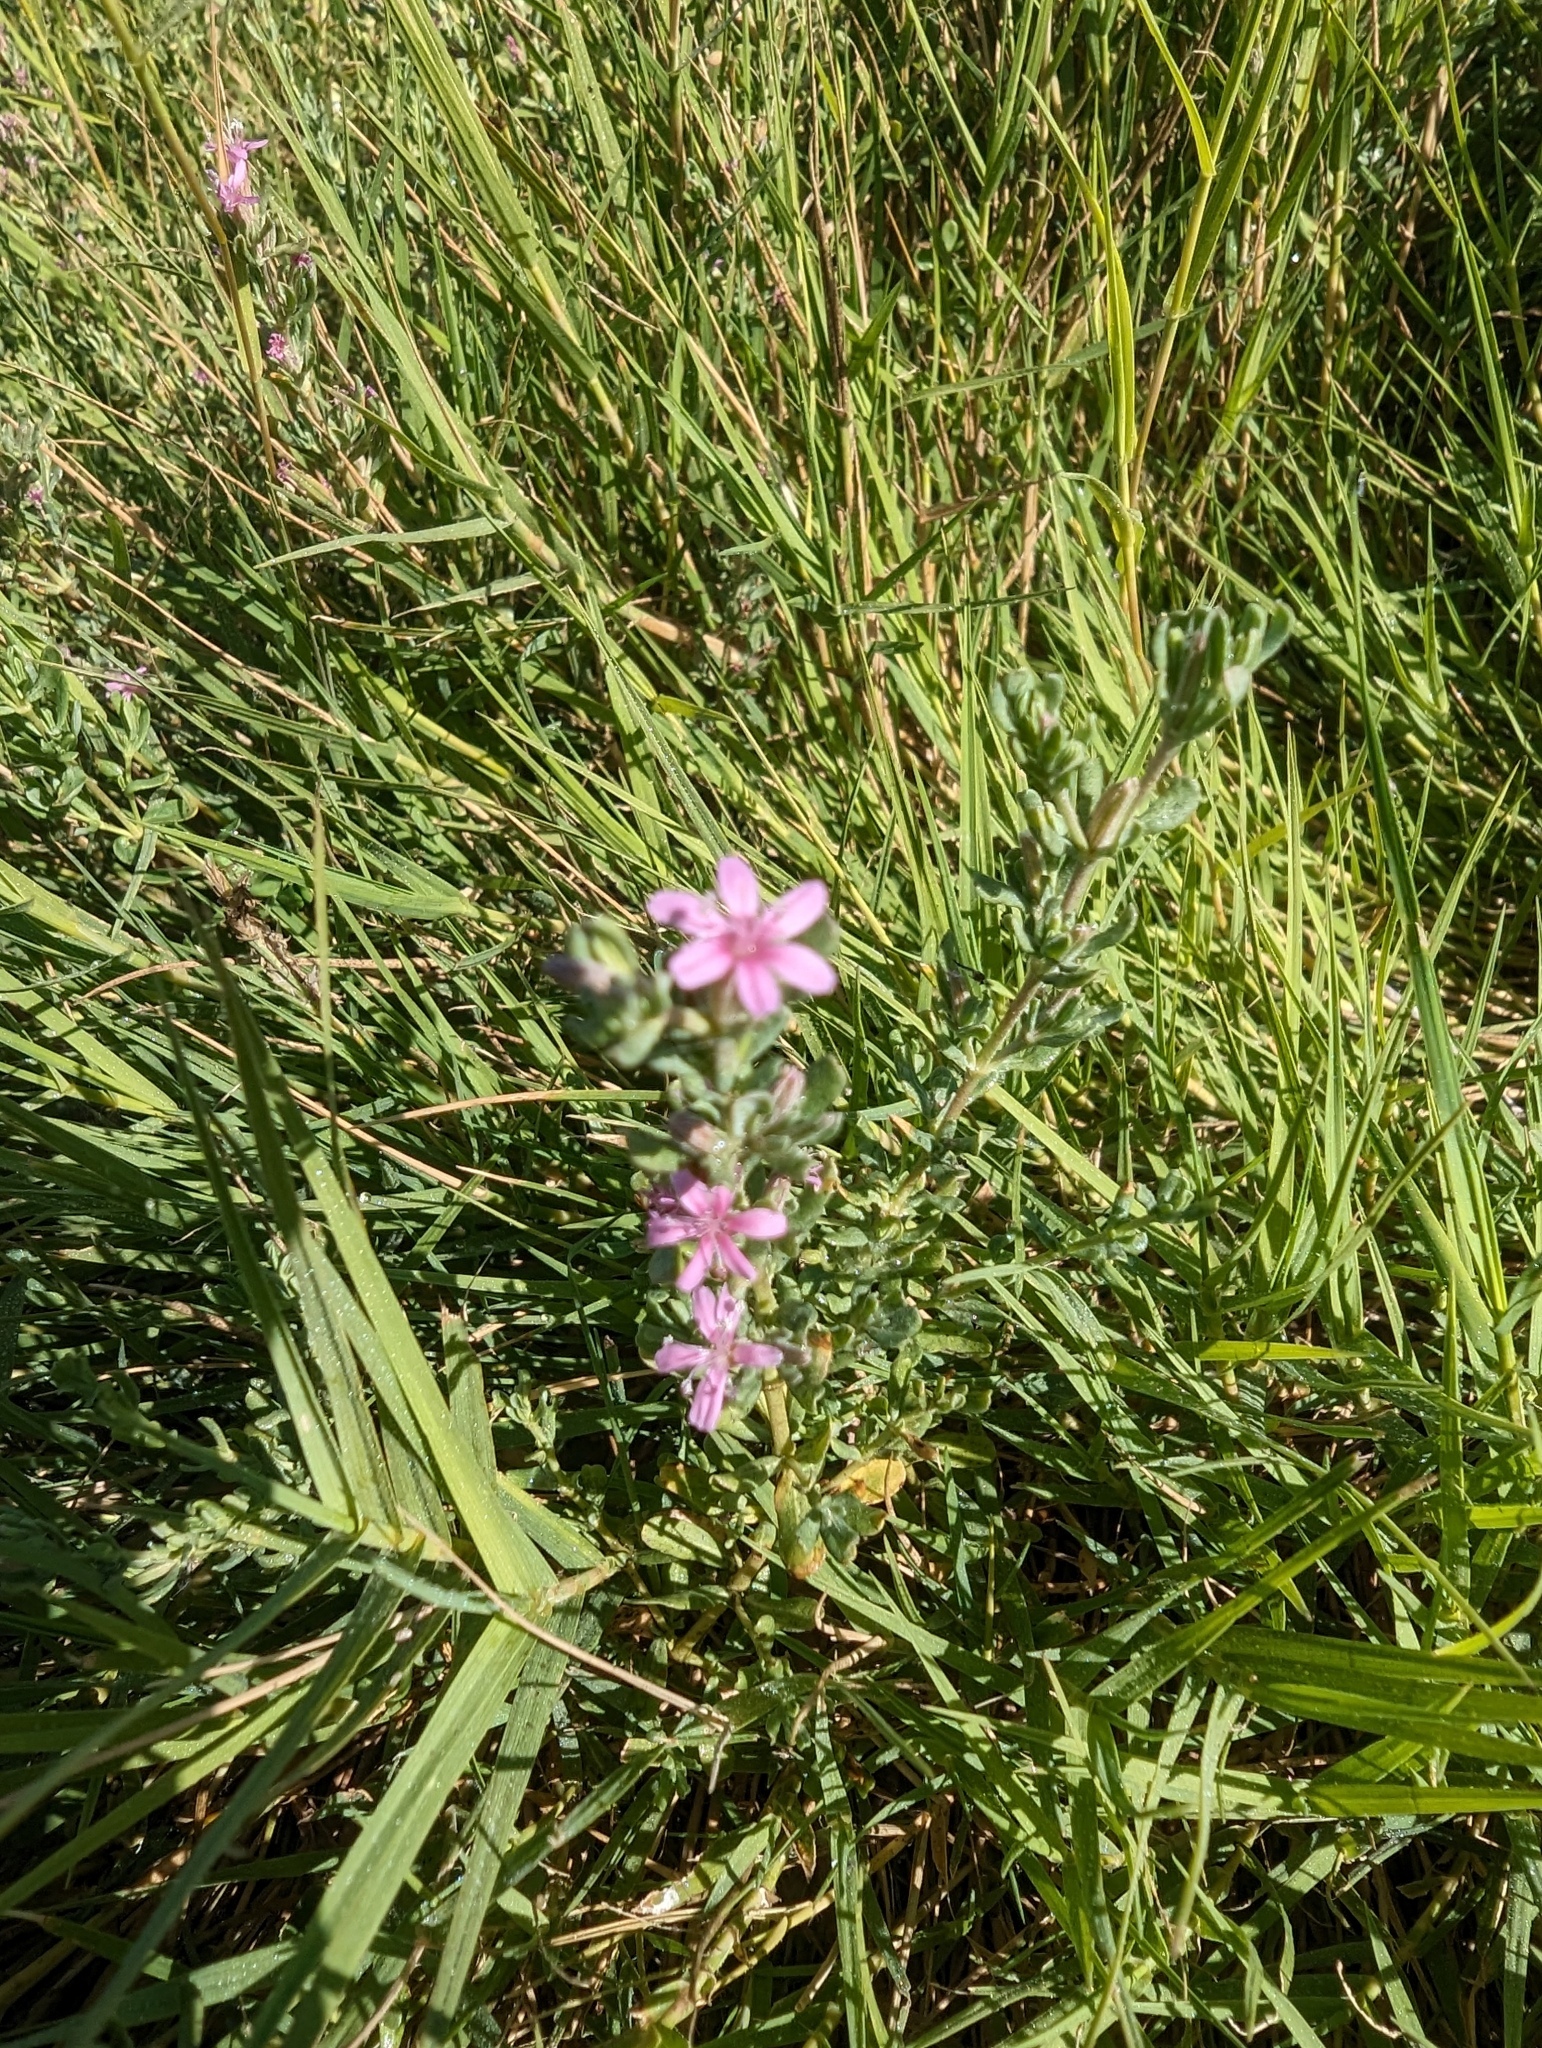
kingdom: Plantae
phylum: Tracheophyta
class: Magnoliopsida
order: Caryophyllales
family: Frankeniaceae
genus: Frankenia
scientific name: Frankenia salina
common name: Alkali seaheath
